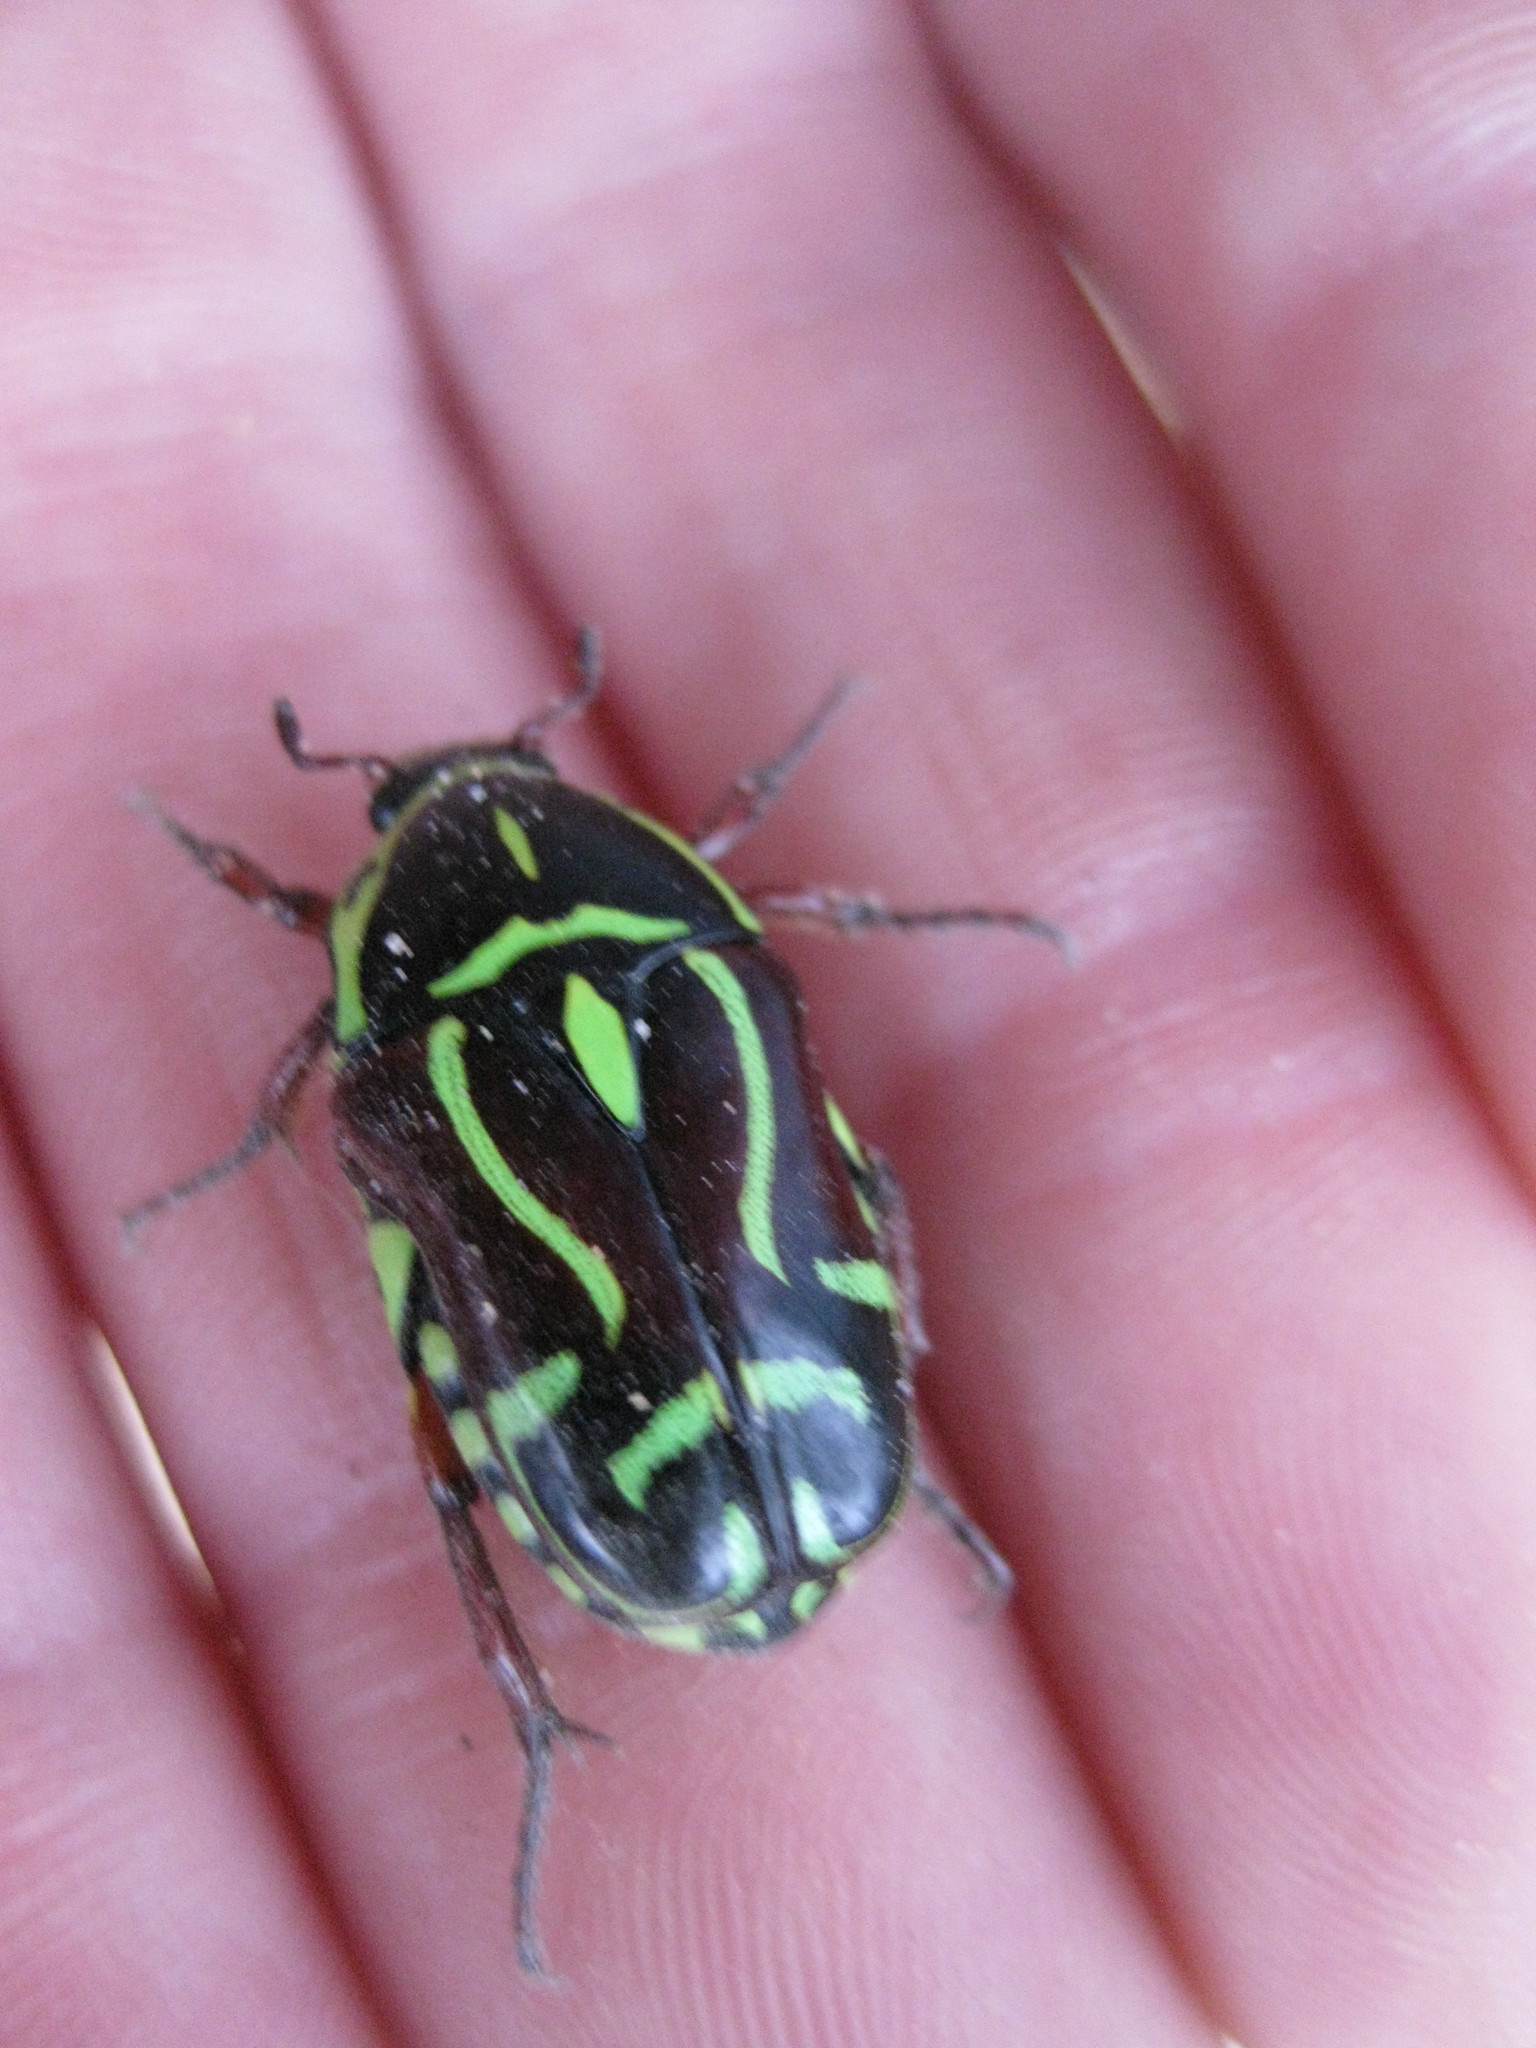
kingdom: Animalia
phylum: Arthropoda
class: Insecta
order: Coleoptera
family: Scarabaeidae
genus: Eupoecila
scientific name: Eupoecila australasiae
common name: Fiddler beetle
